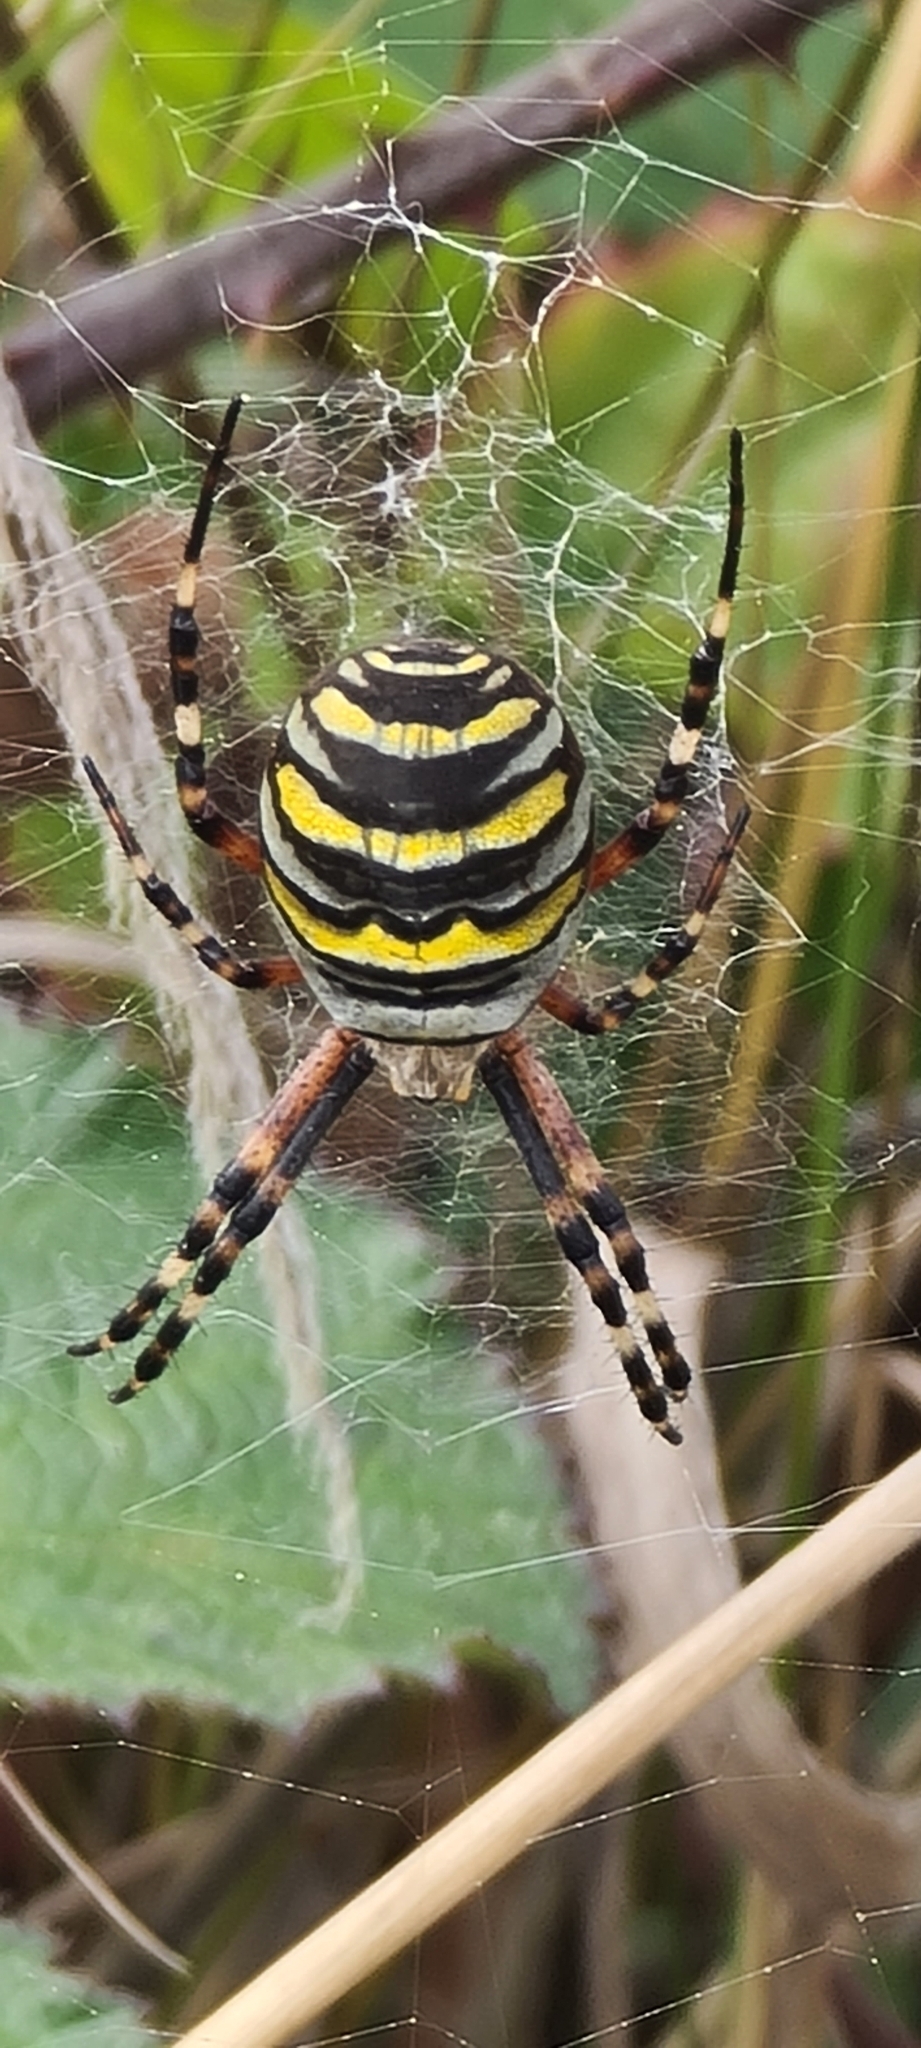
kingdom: Animalia
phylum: Arthropoda
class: Arachnida
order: Araneae
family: Araneidae
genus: Argiope
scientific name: Argiope bruennichi
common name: Wasp spider
